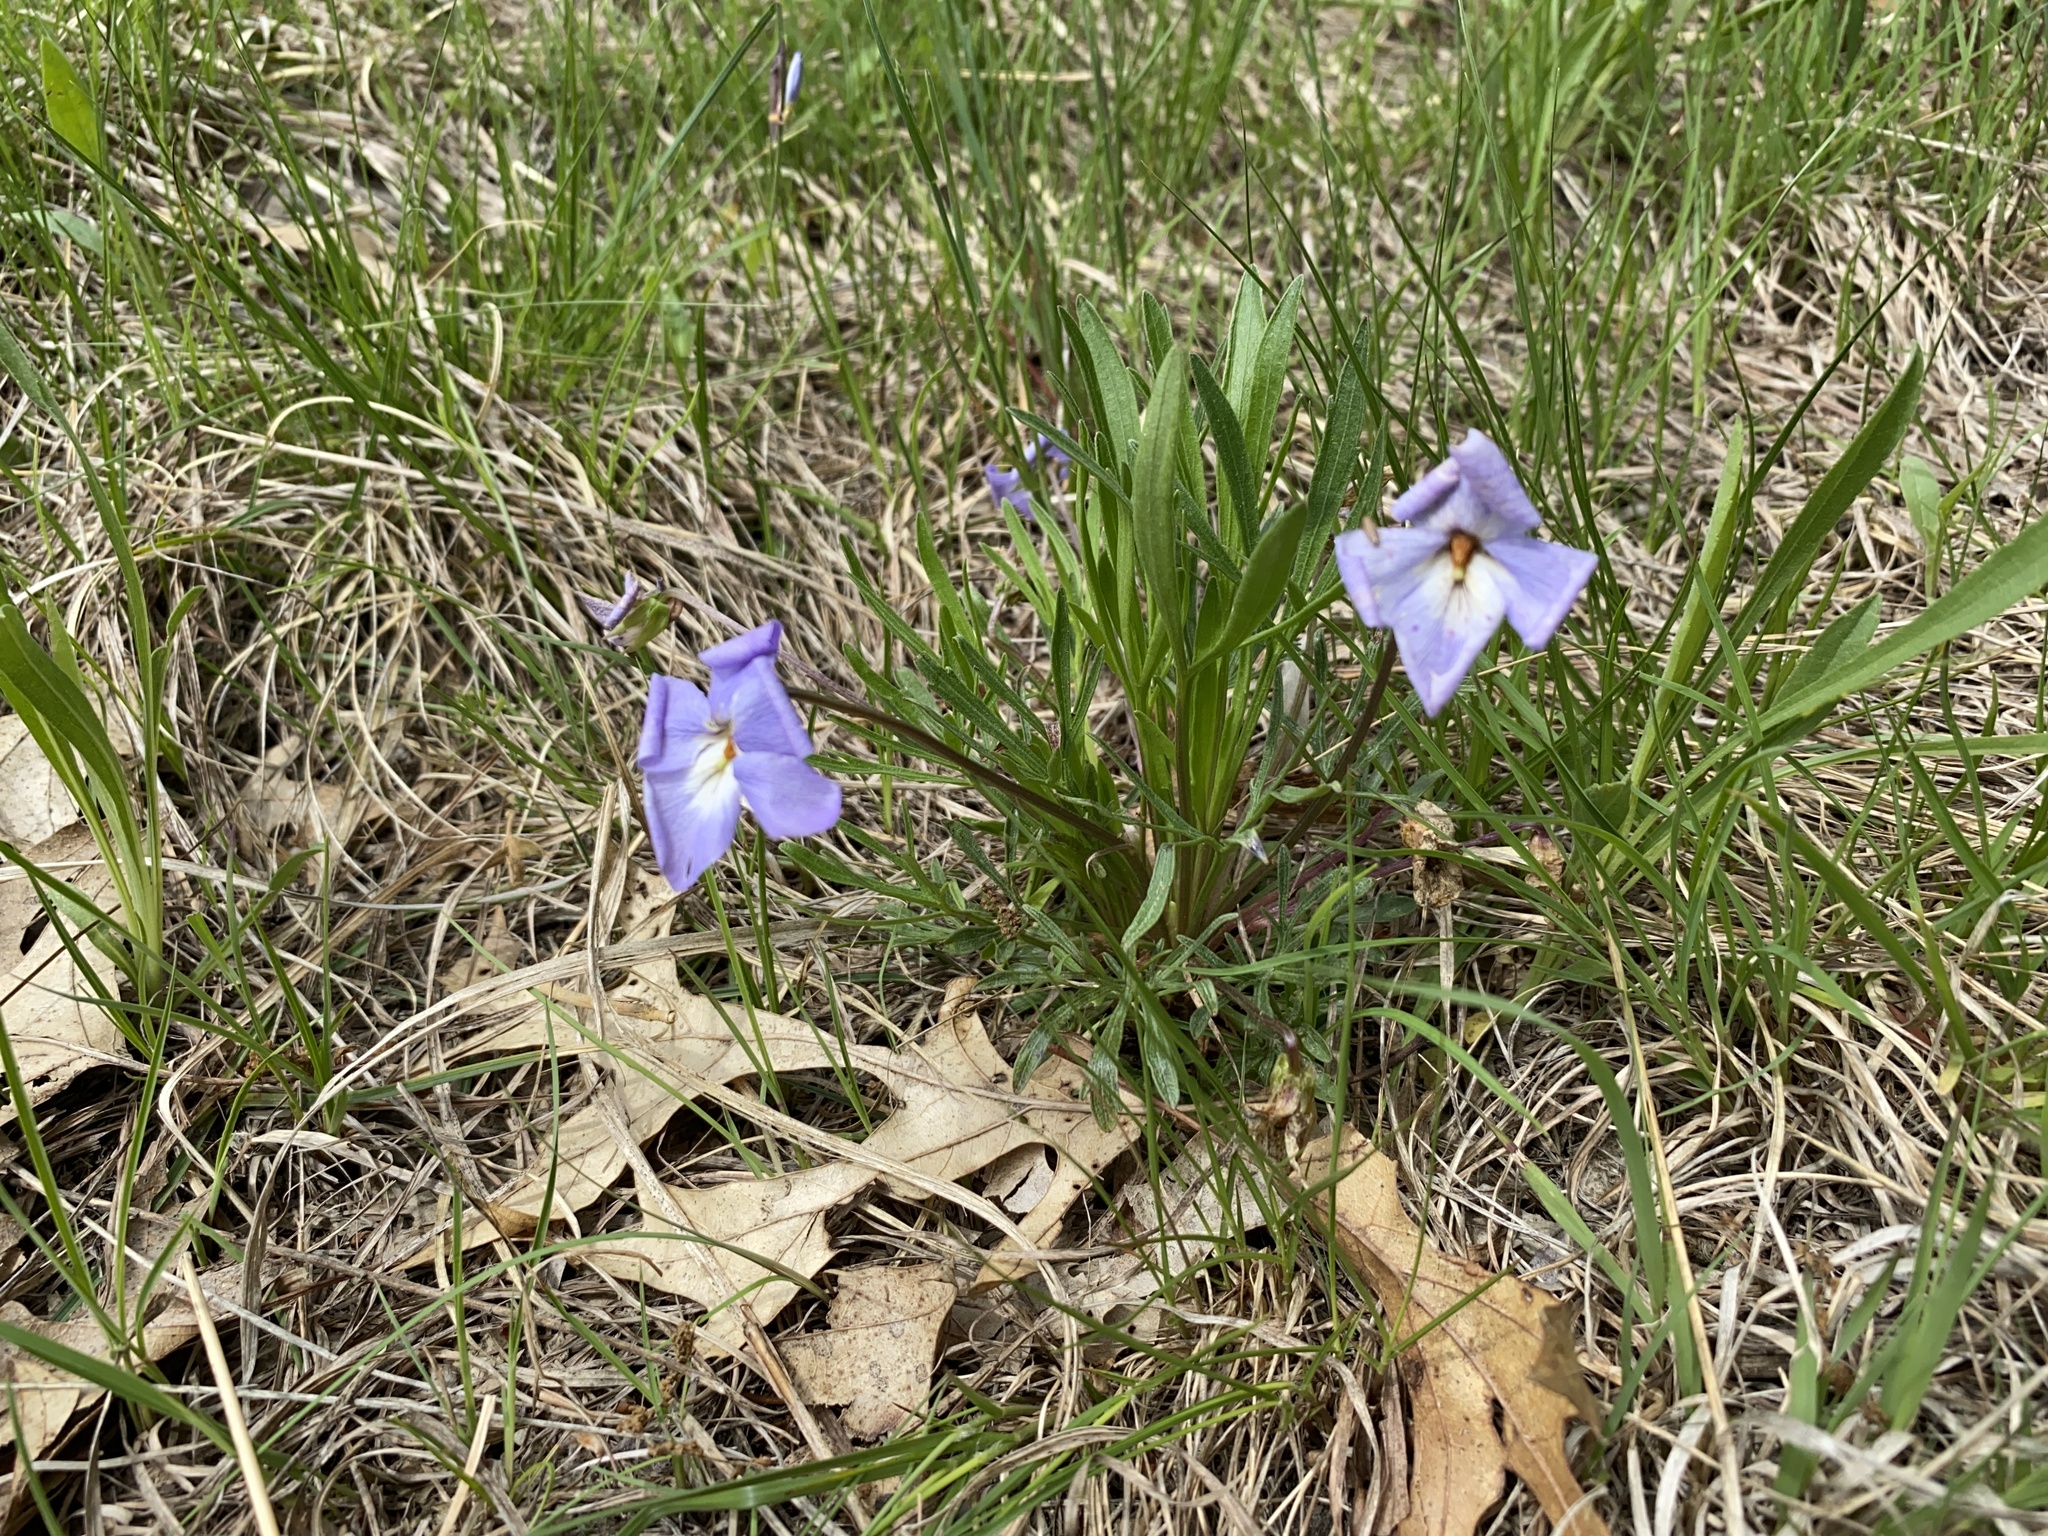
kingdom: Plantae
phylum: Tracheophyta
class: Magnoliopsida
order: Malpighiales
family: Violaceae
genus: Viola
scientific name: Viola pedata
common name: Pansy violet
